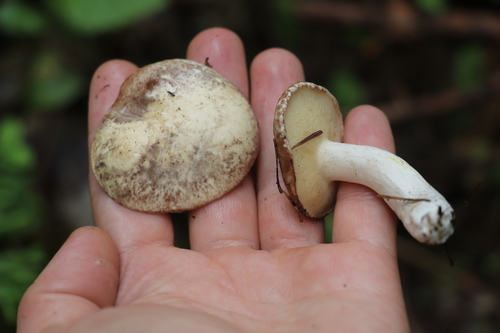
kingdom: Fungi
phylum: Basidiomycota
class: Agaricomycetes
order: Boletales
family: Suillaceae
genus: Suillus
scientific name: Suillus placidus
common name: Slippery white bolete
